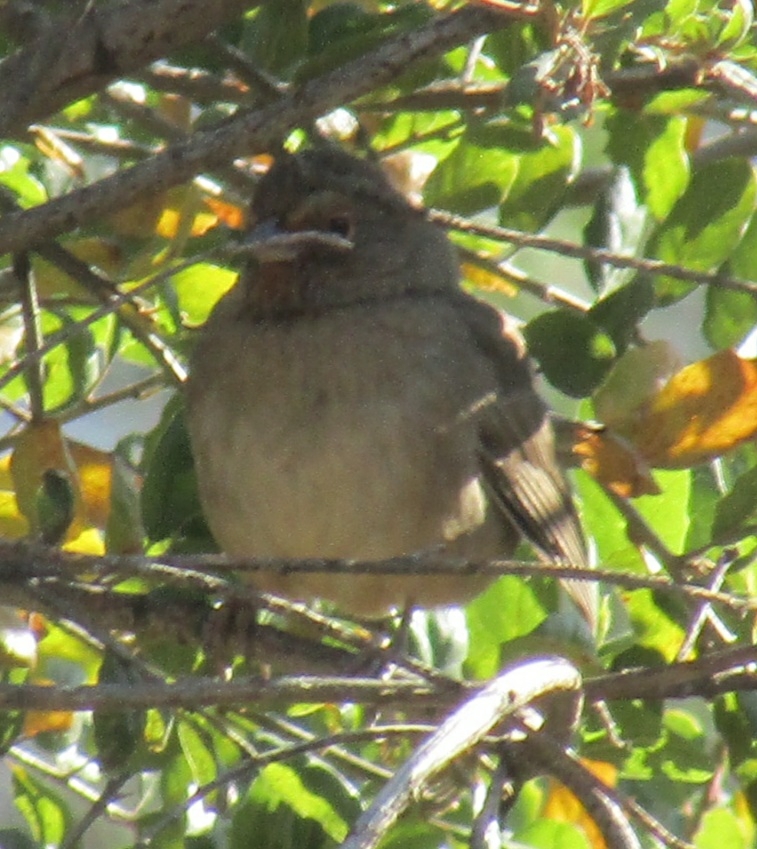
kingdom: Animalia
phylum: Chordata
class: Aves
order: Passeriformes
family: Passerellidae
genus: Melozone
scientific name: Melozone crissalis
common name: California towhee
